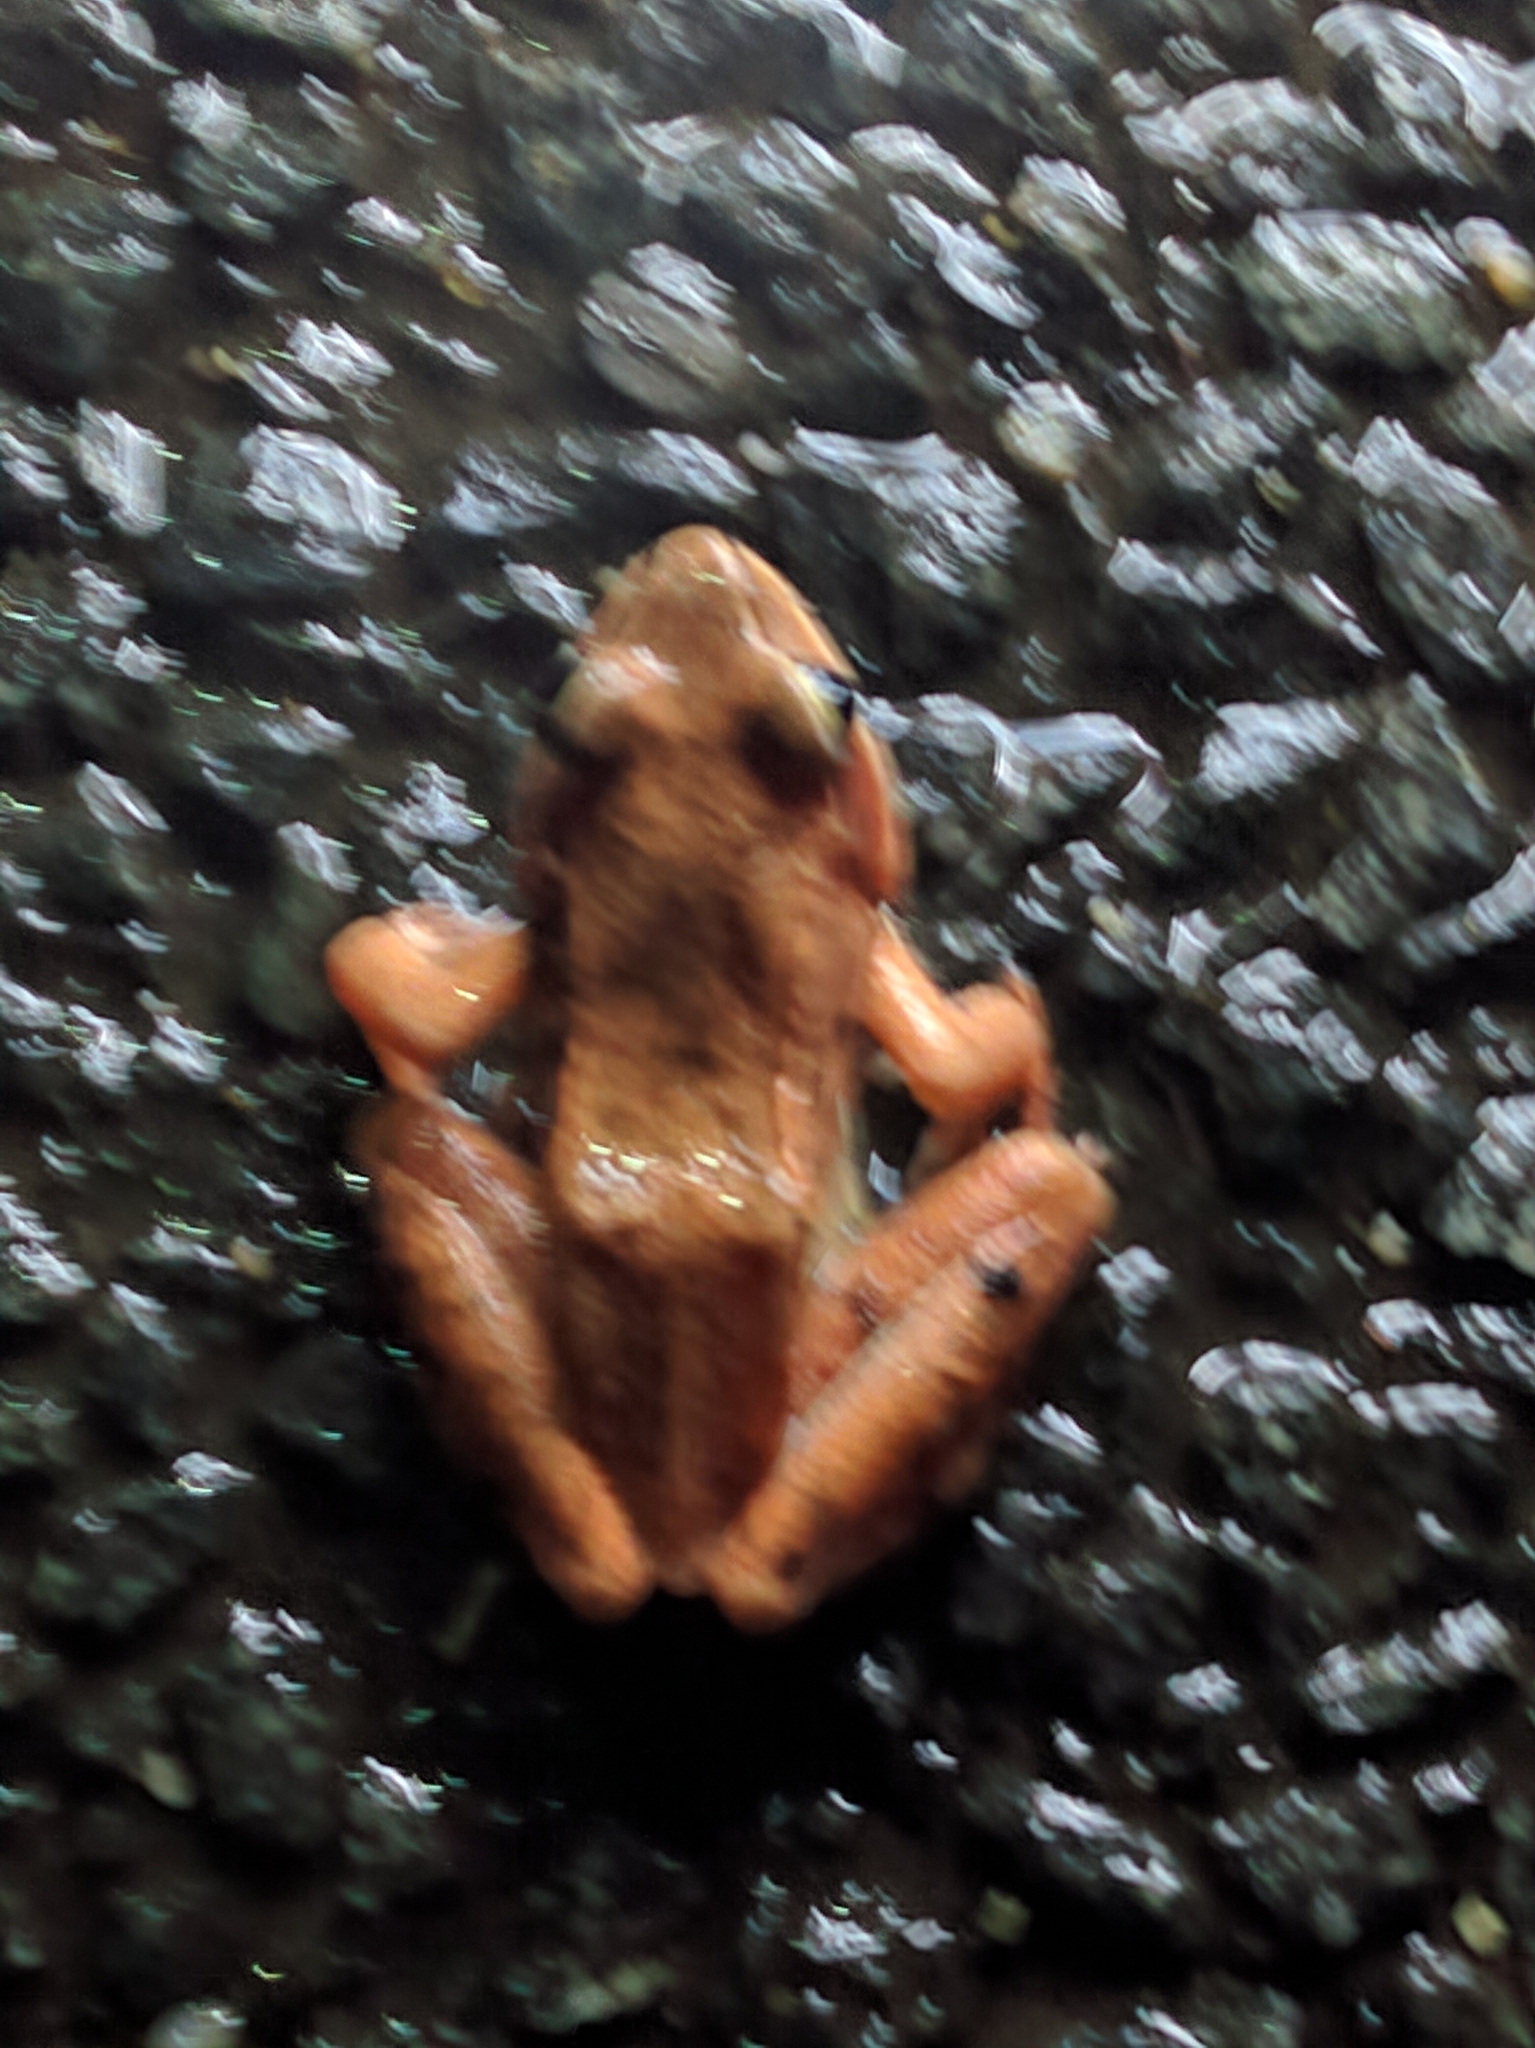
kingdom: Animalia
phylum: Chordata
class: Amphibia
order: Anura
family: Ranidae
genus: Lithobates
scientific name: Lithobates sylvaticus
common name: Wood frog
